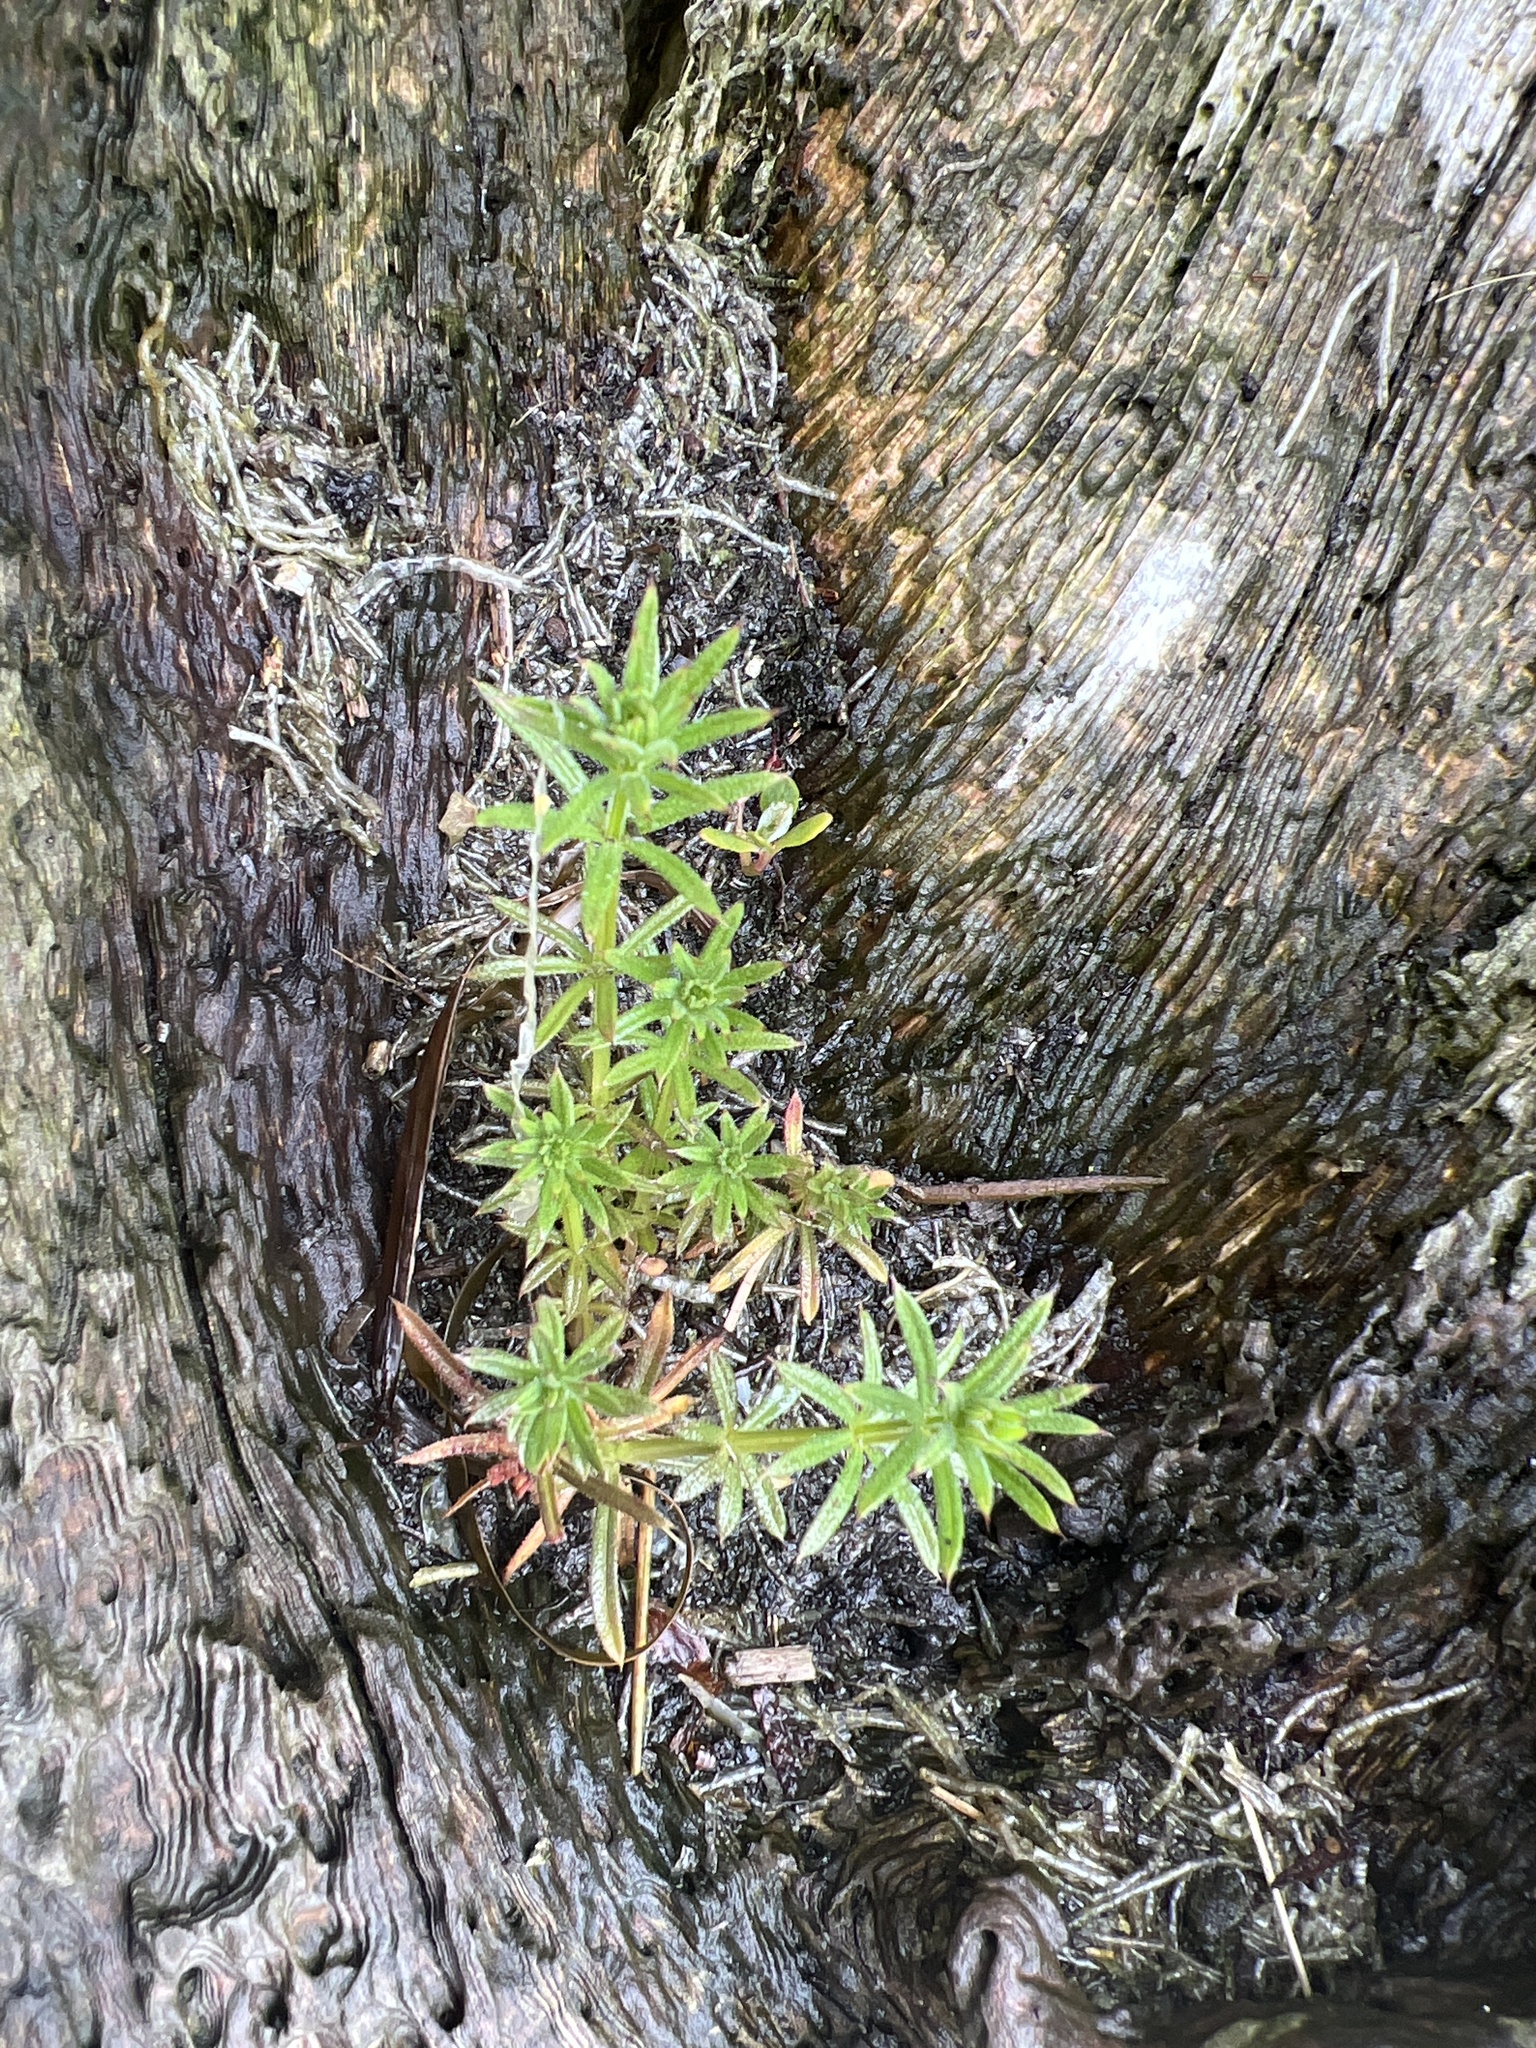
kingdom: Plantae
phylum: Tracheophyta
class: Magnoliopsida
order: Gentianales
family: Rubiaceae
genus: Galium
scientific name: Galium aparine
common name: Cleavers
